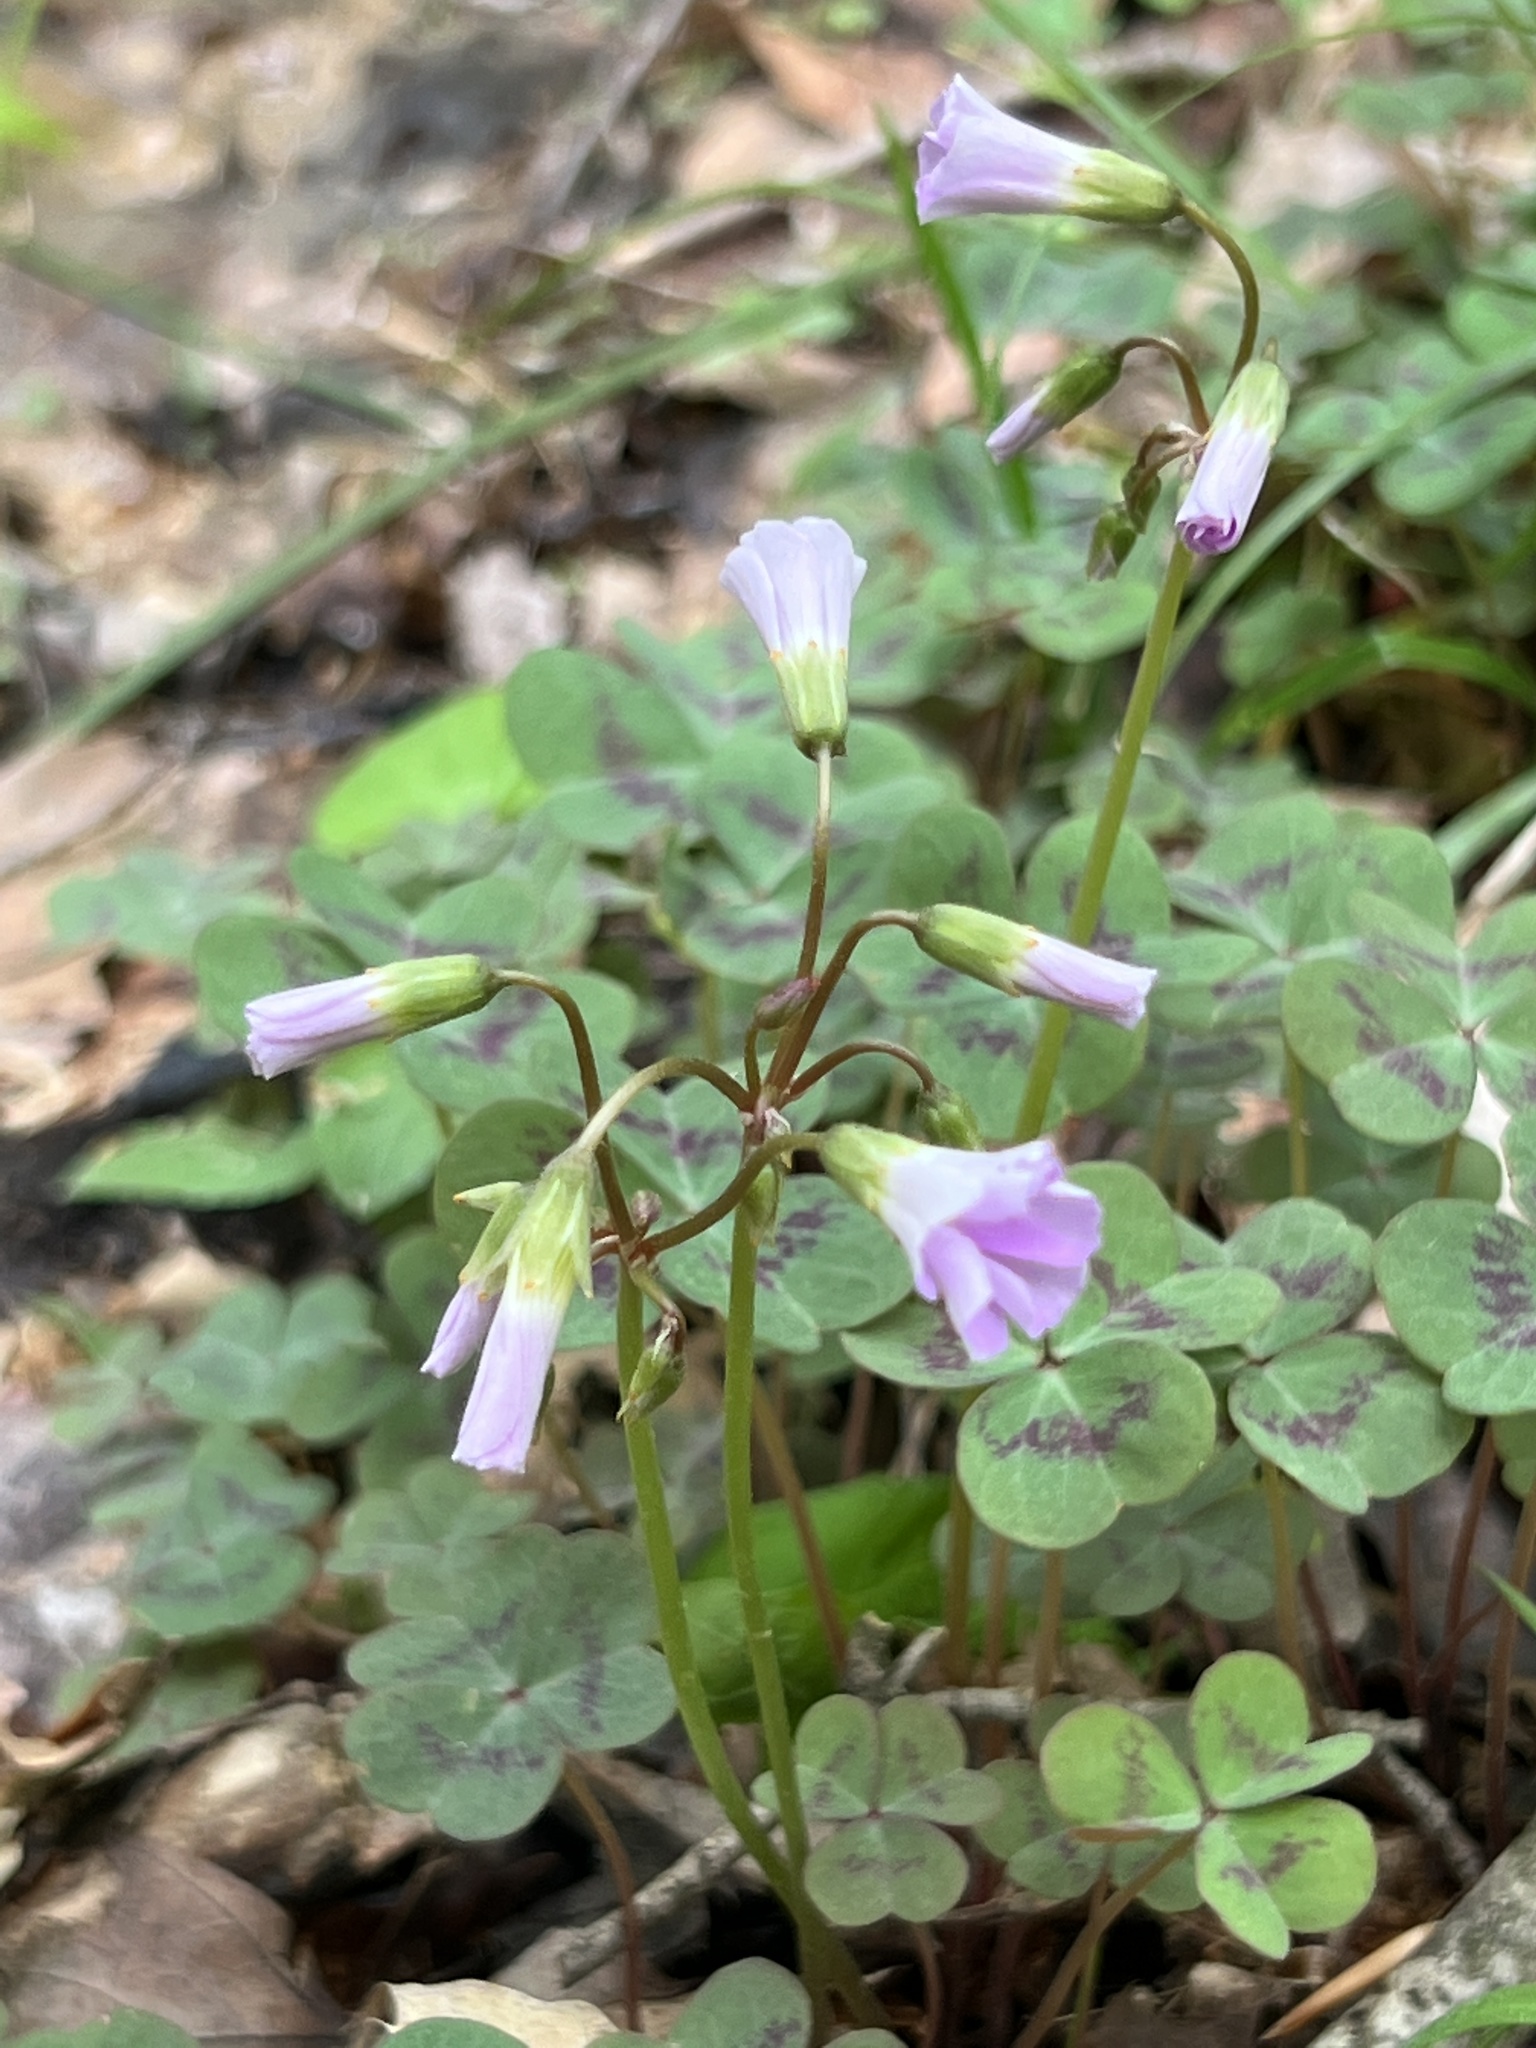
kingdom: Plantae
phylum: Tracheophyta
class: Magnoliopsida
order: Oxalidales
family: Oxalidaceae
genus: Oxalis
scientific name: Oxalis violacea
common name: Violet wood-sorrel
